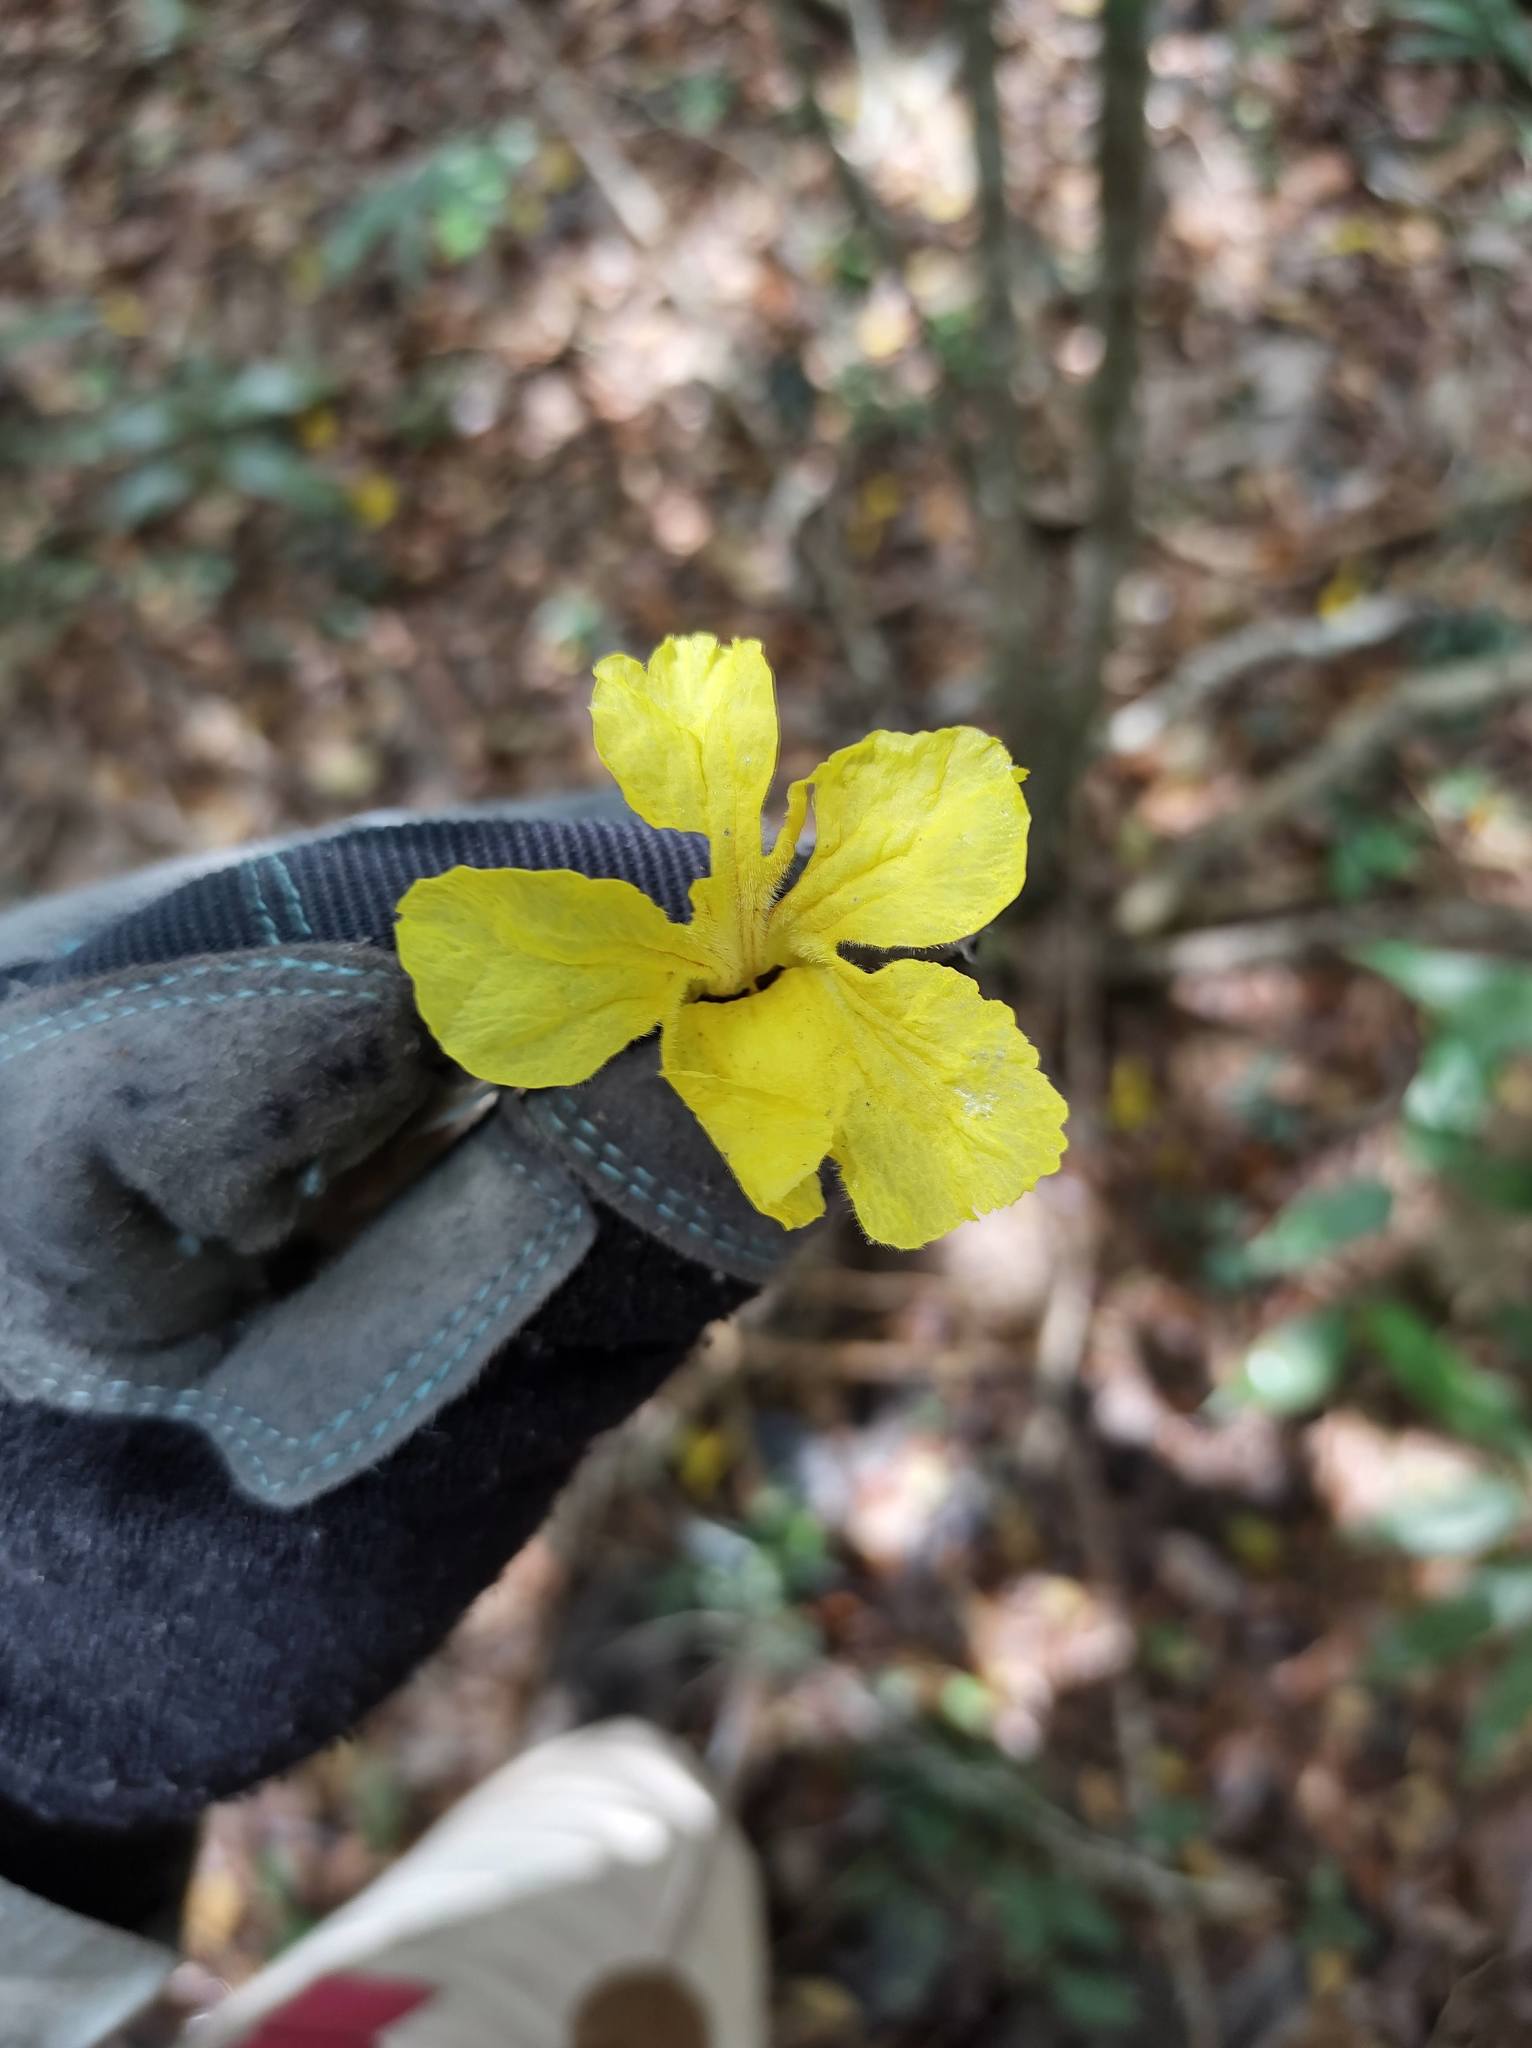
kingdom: Plantae
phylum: Tracheophyta
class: Magnoliopsida
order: Lamiales
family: Bignoniaceae
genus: Handroanthus
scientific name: Handroanthus chrysanthus
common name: Trumpet trees
